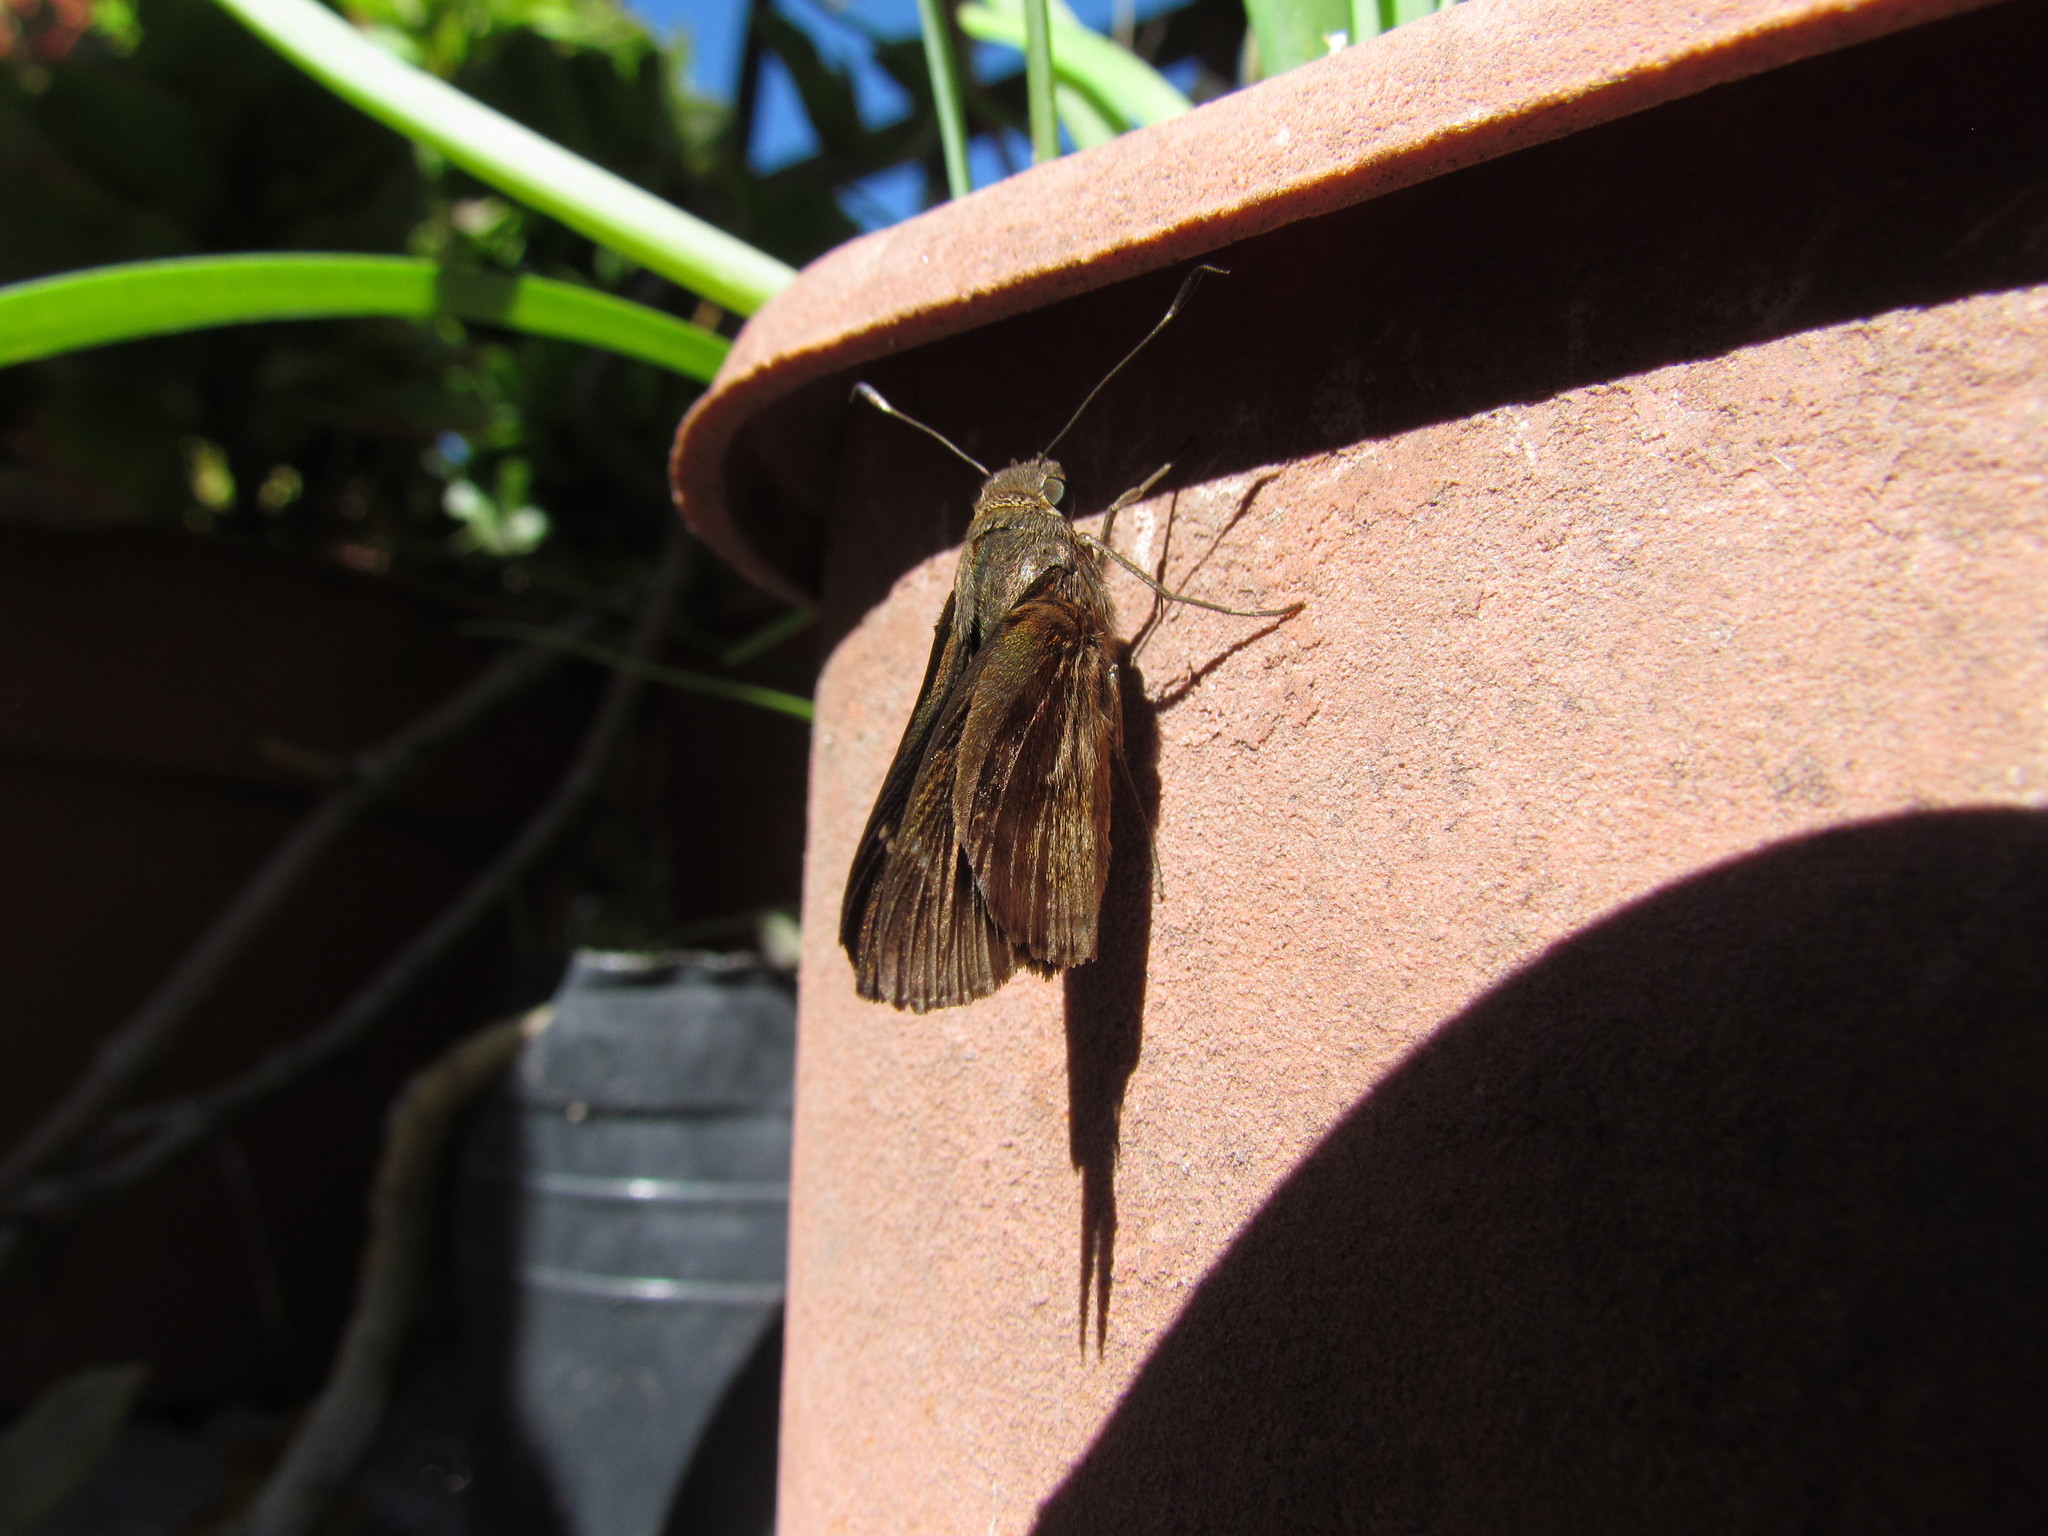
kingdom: Animalia
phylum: Arthropoda
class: Insecta
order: Lepidoptera
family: Hesperiidae
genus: Quinta
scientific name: Quinta cannae
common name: Canna skipper
